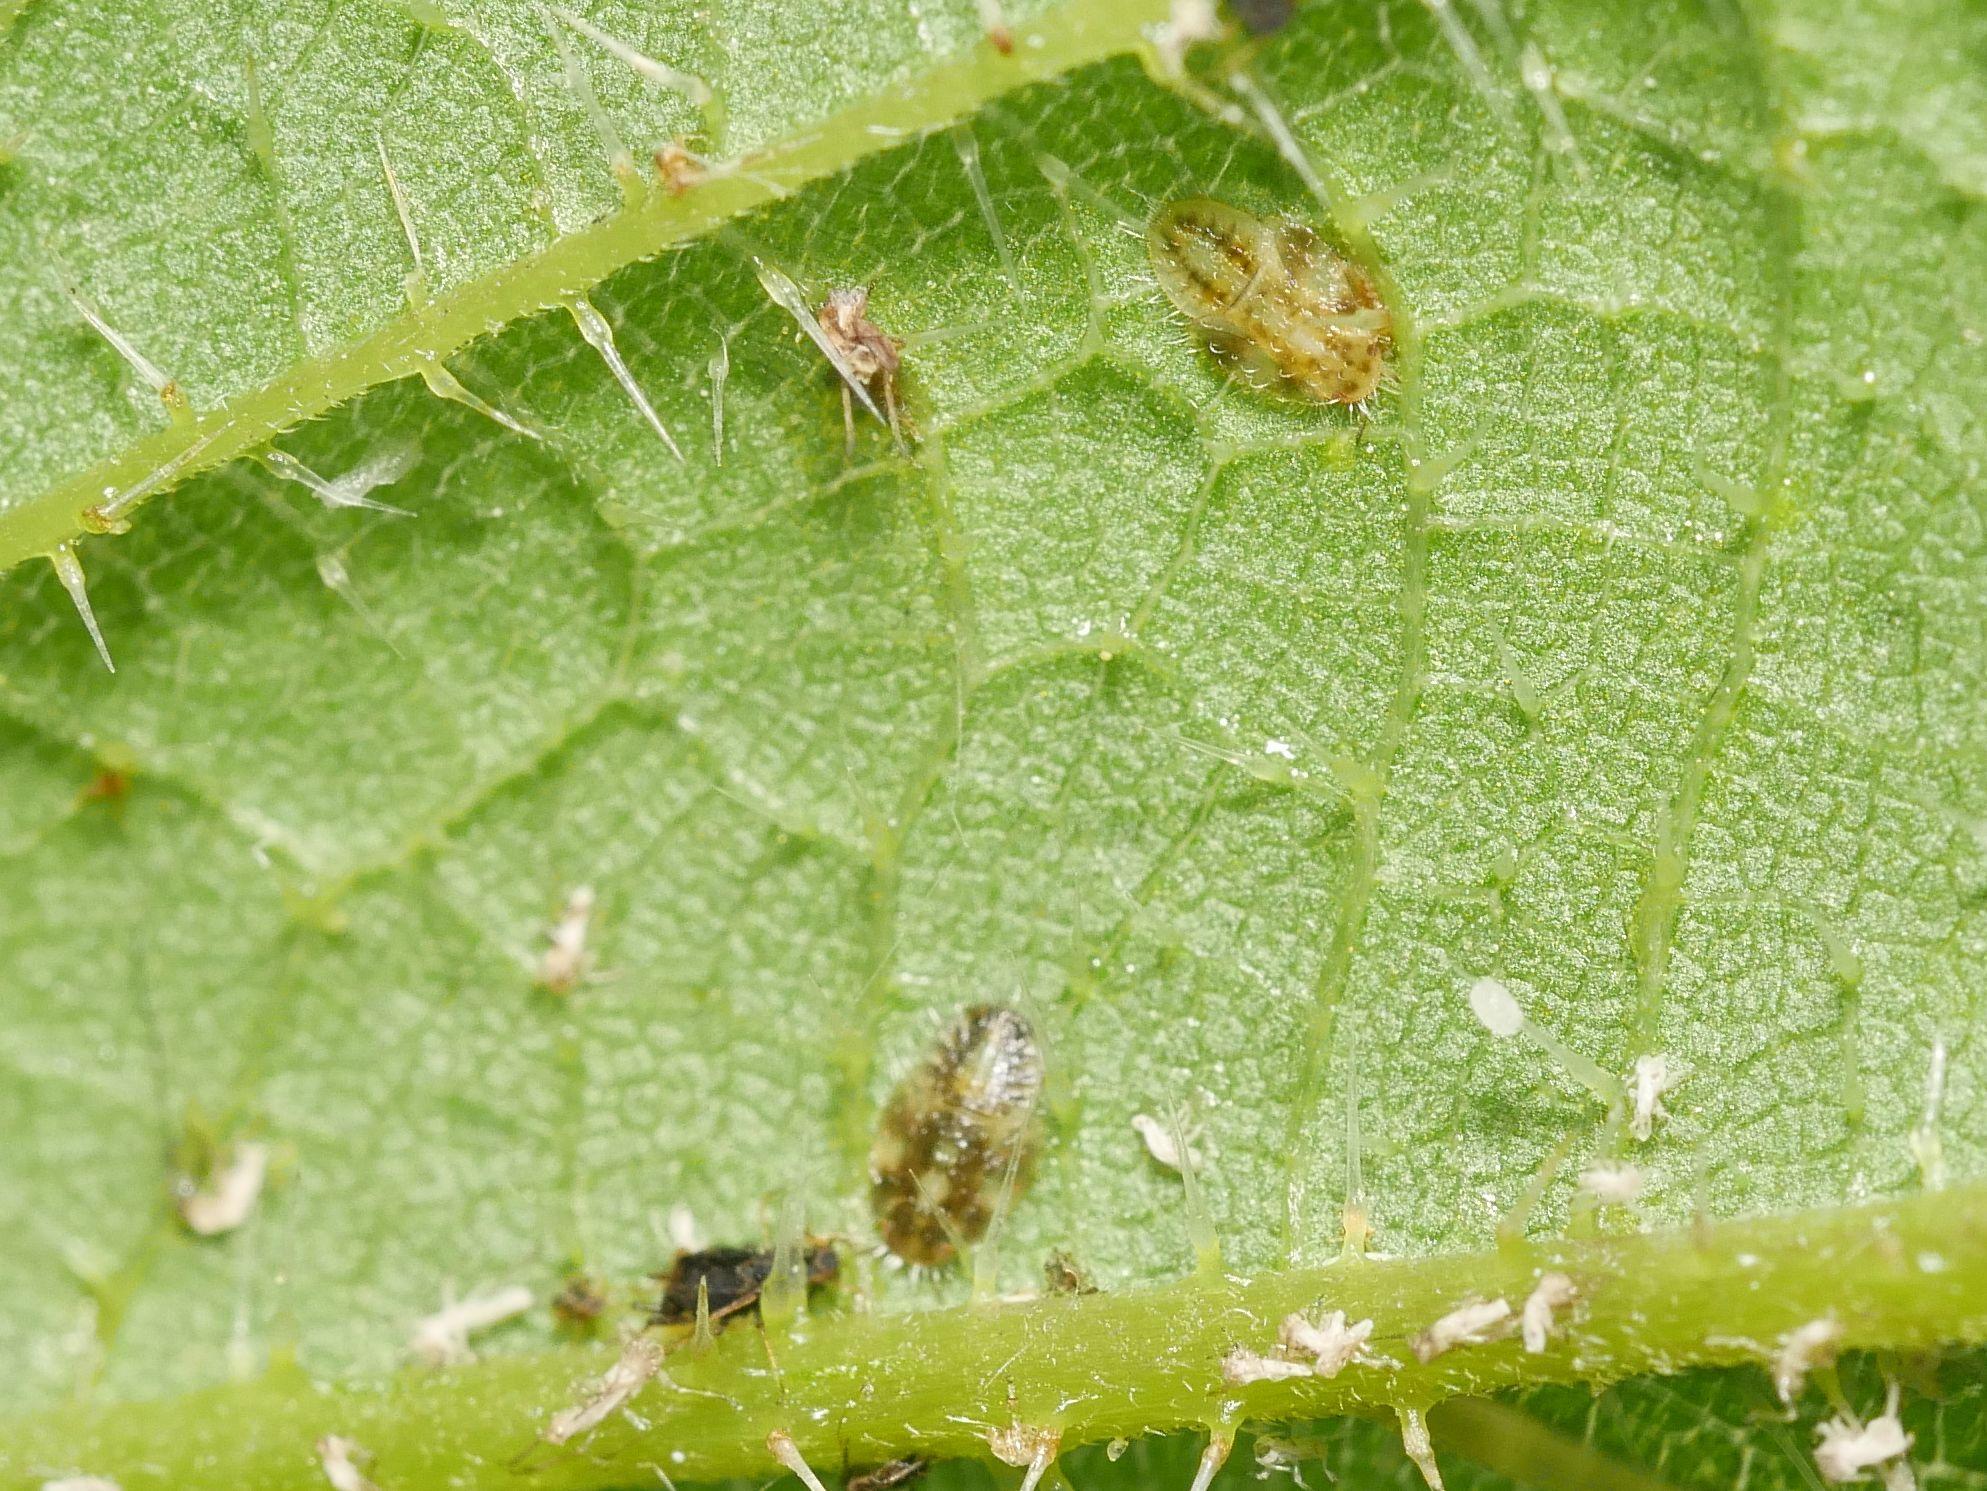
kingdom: Animalia
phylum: Arthropoda
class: Insecta
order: Hemiptera
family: Triozidae
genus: Trioza
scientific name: Trioza urticae
